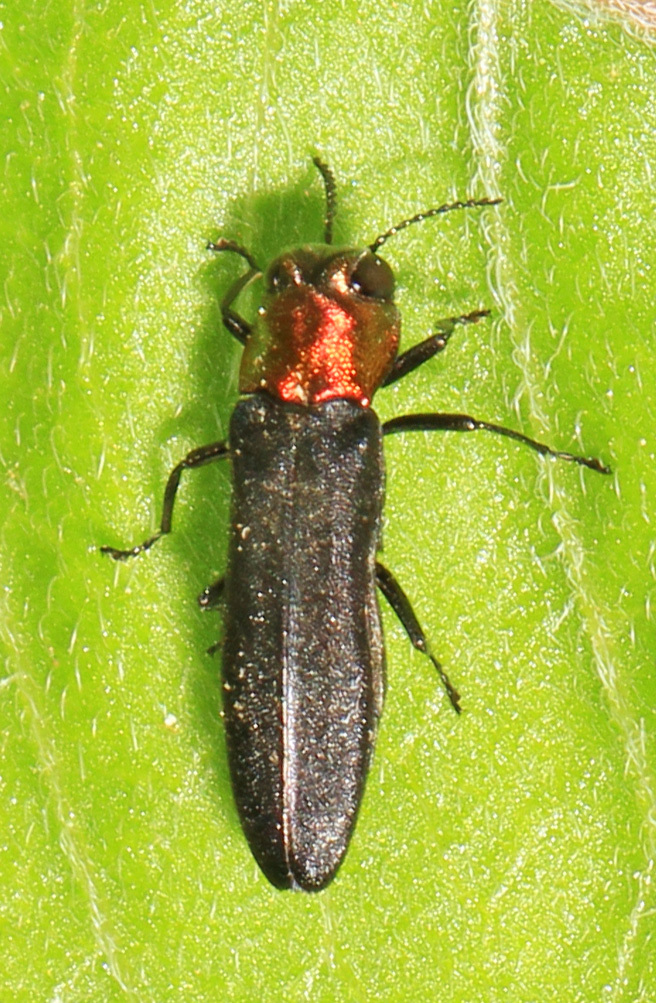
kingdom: Animalia
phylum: Arthropoda
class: Insecta
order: Coleoptera
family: Buprestidae
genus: Agrilus
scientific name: Agrilus ruficollis
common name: Red-necked cane borer beetle
